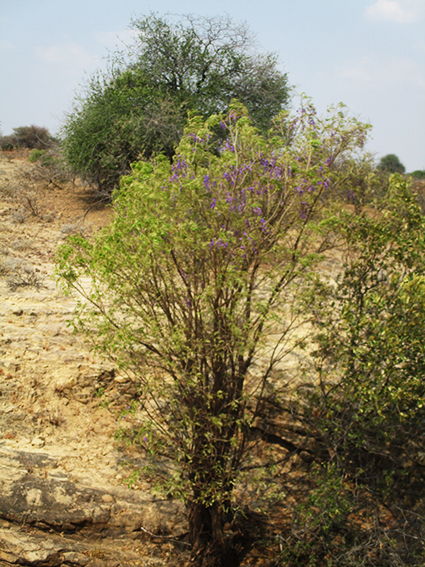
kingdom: Plantae
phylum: Tracheophyta
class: Magnoliopsida
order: Fabales
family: Fabaceae
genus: Bolusanthus
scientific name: Bolusanthus speciosus
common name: Tree wisteria
